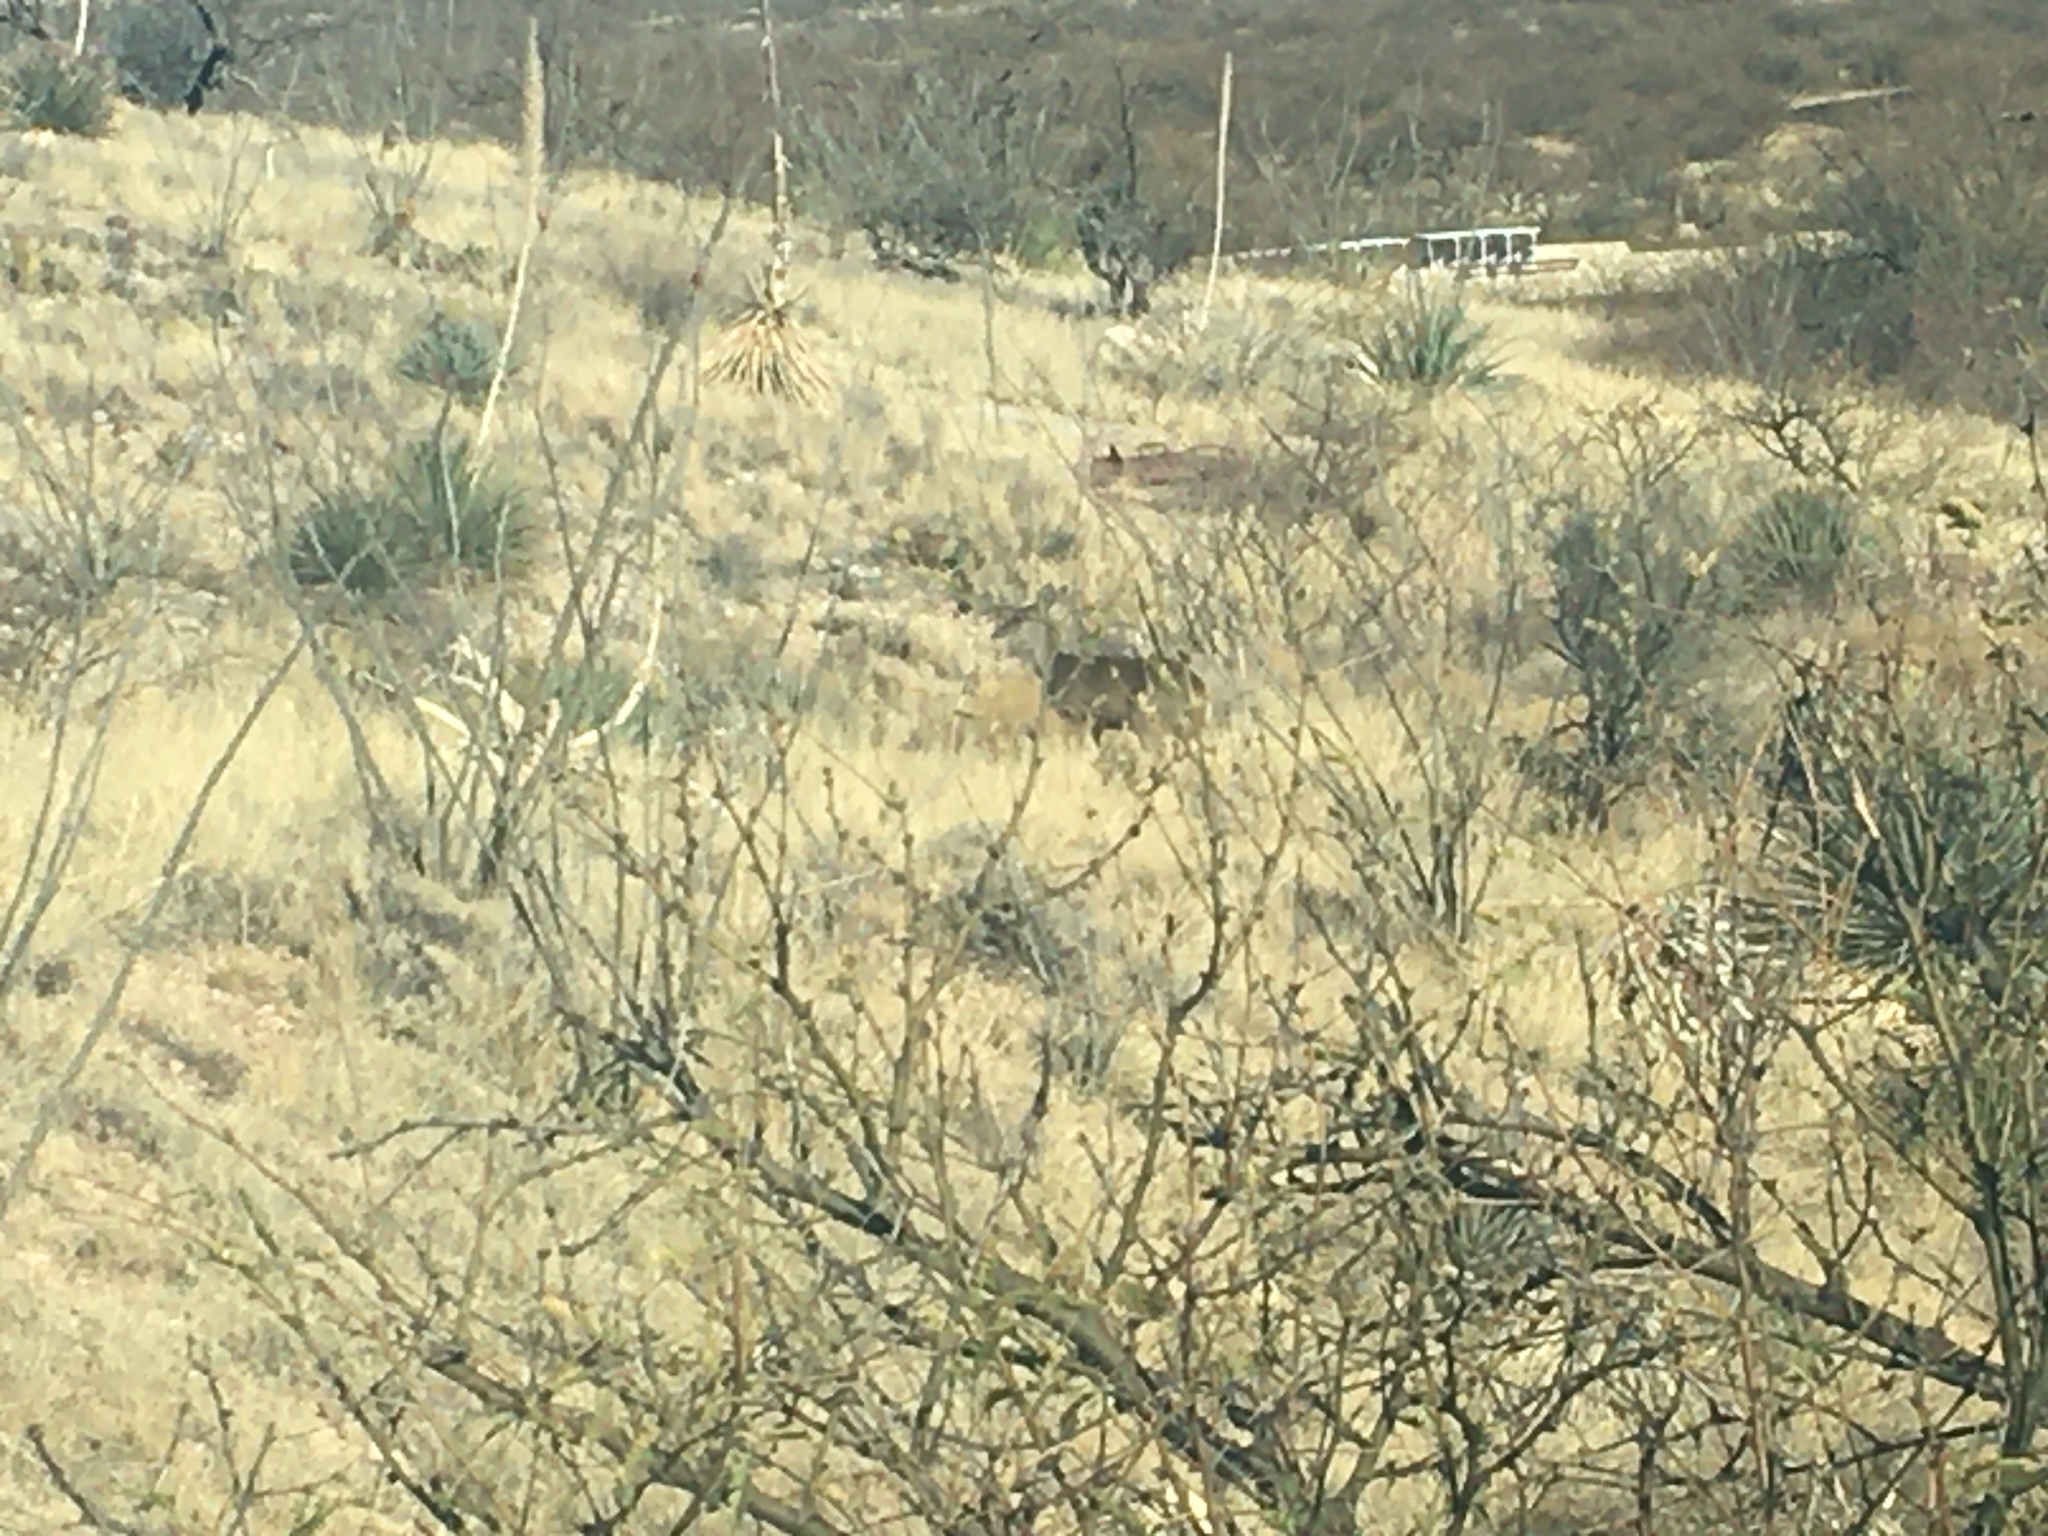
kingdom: Animalia
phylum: Chordata
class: Mammalia
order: Artiodactyla
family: Cervidae
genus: Odocoileus
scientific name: Odocoileus virginianus
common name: White-tailed deer
